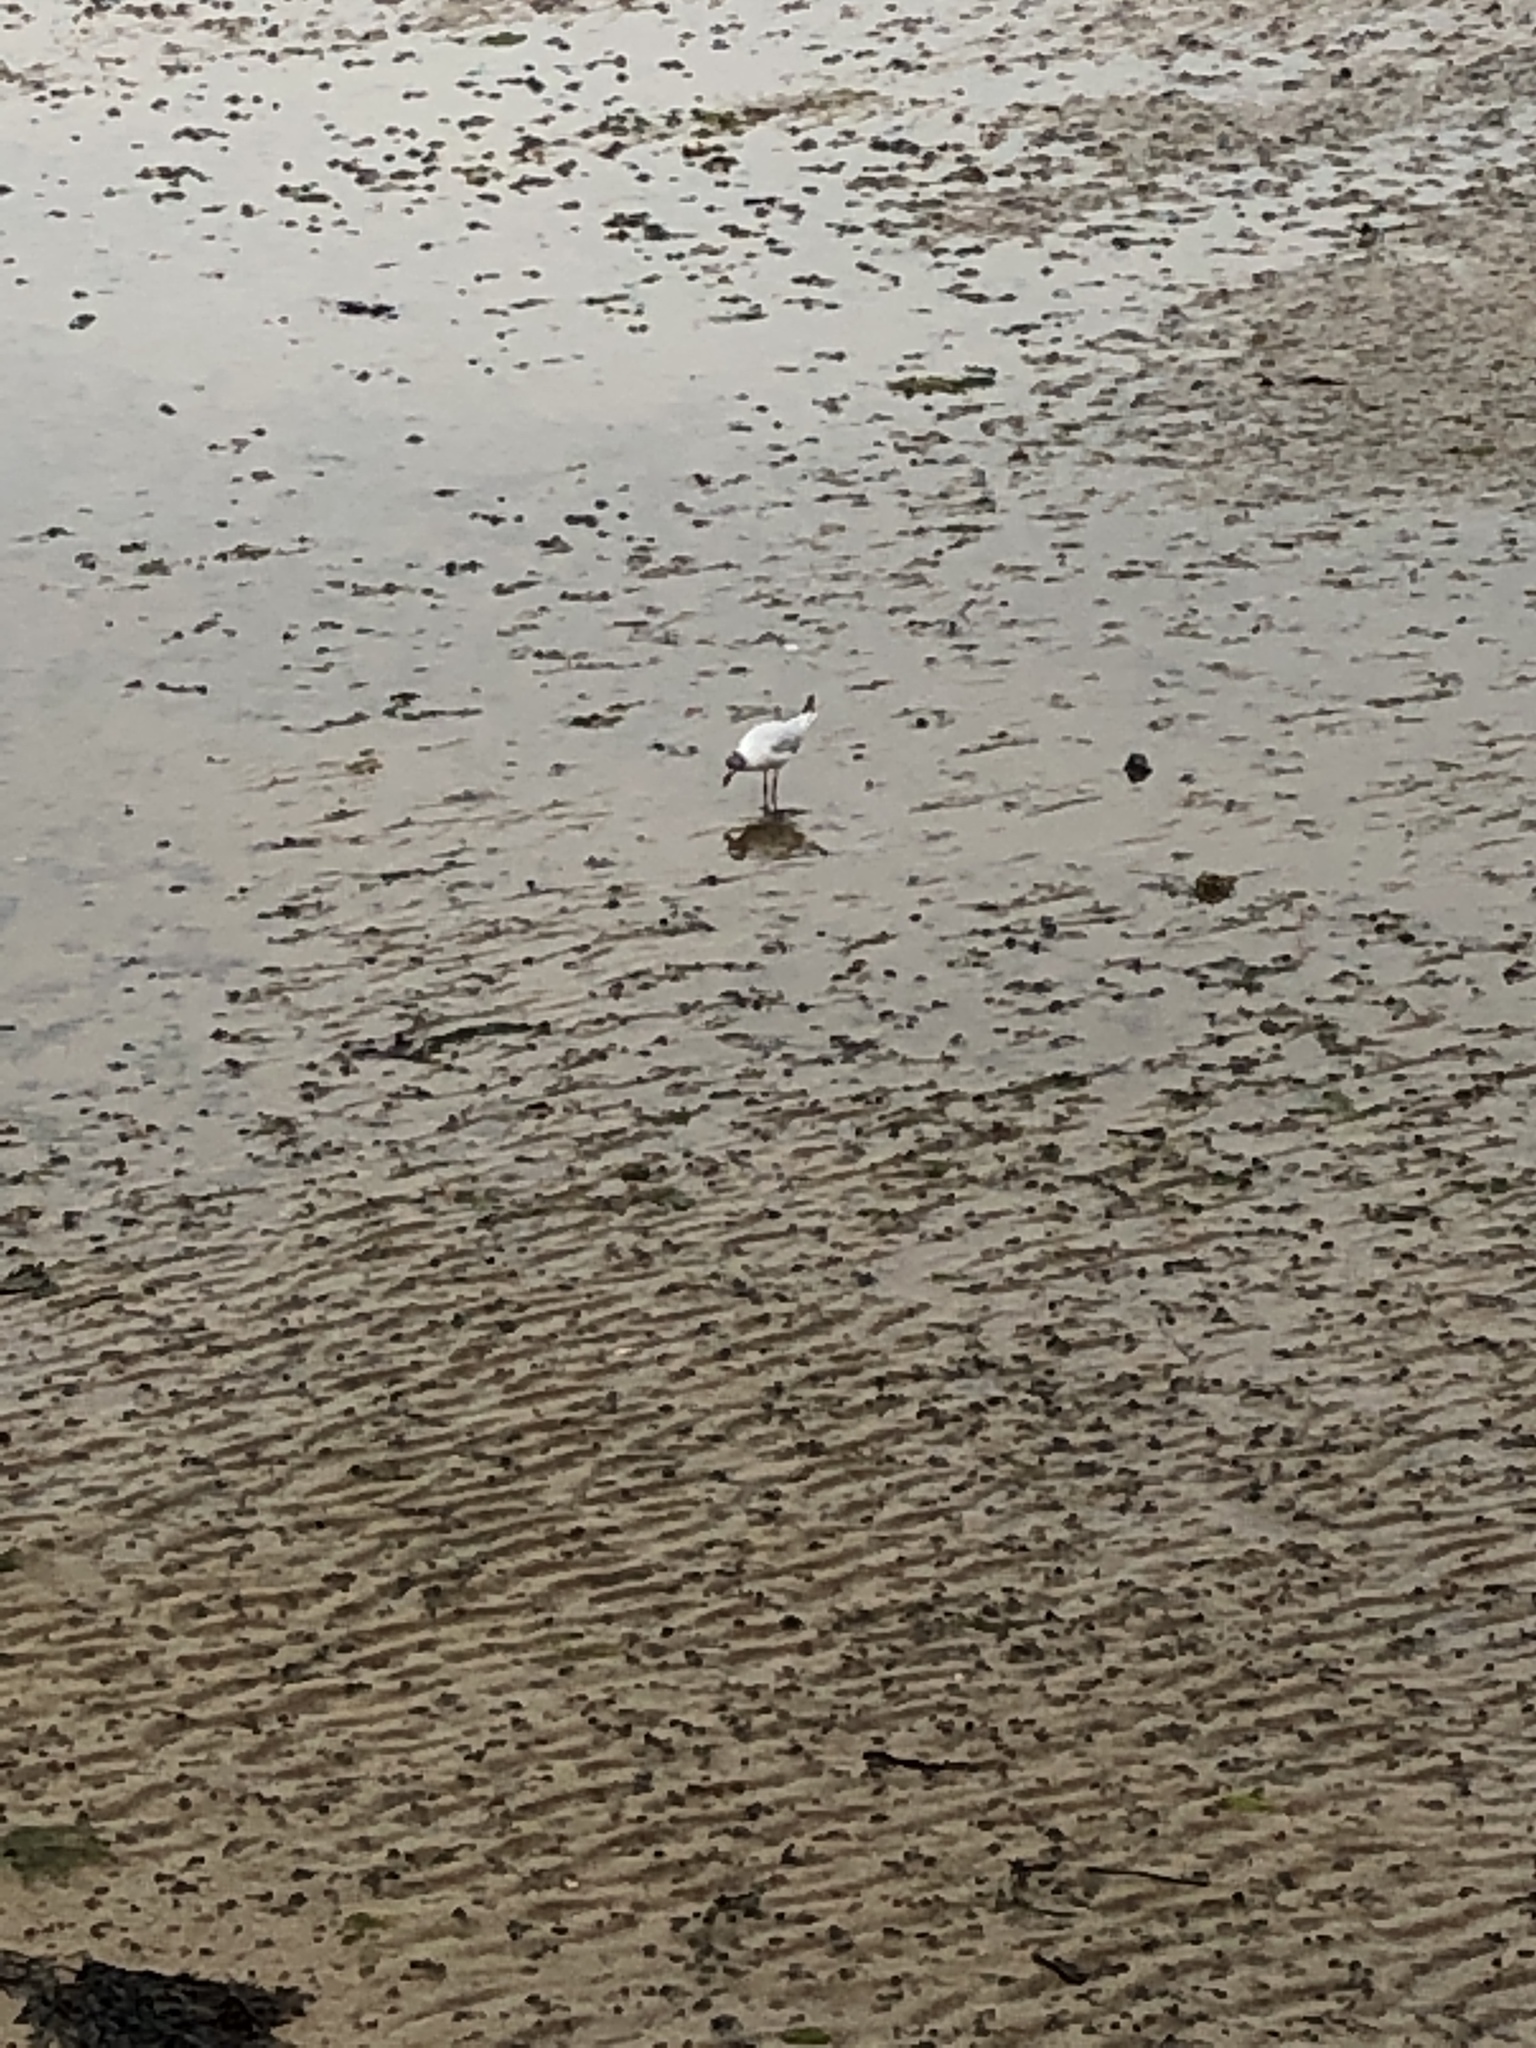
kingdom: Animalia
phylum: Chordata
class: Aves
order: Charadriiformes
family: Laridae
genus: Chroicocephalus
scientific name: Chroicocephalus ridibundus
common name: Black-headed gull
